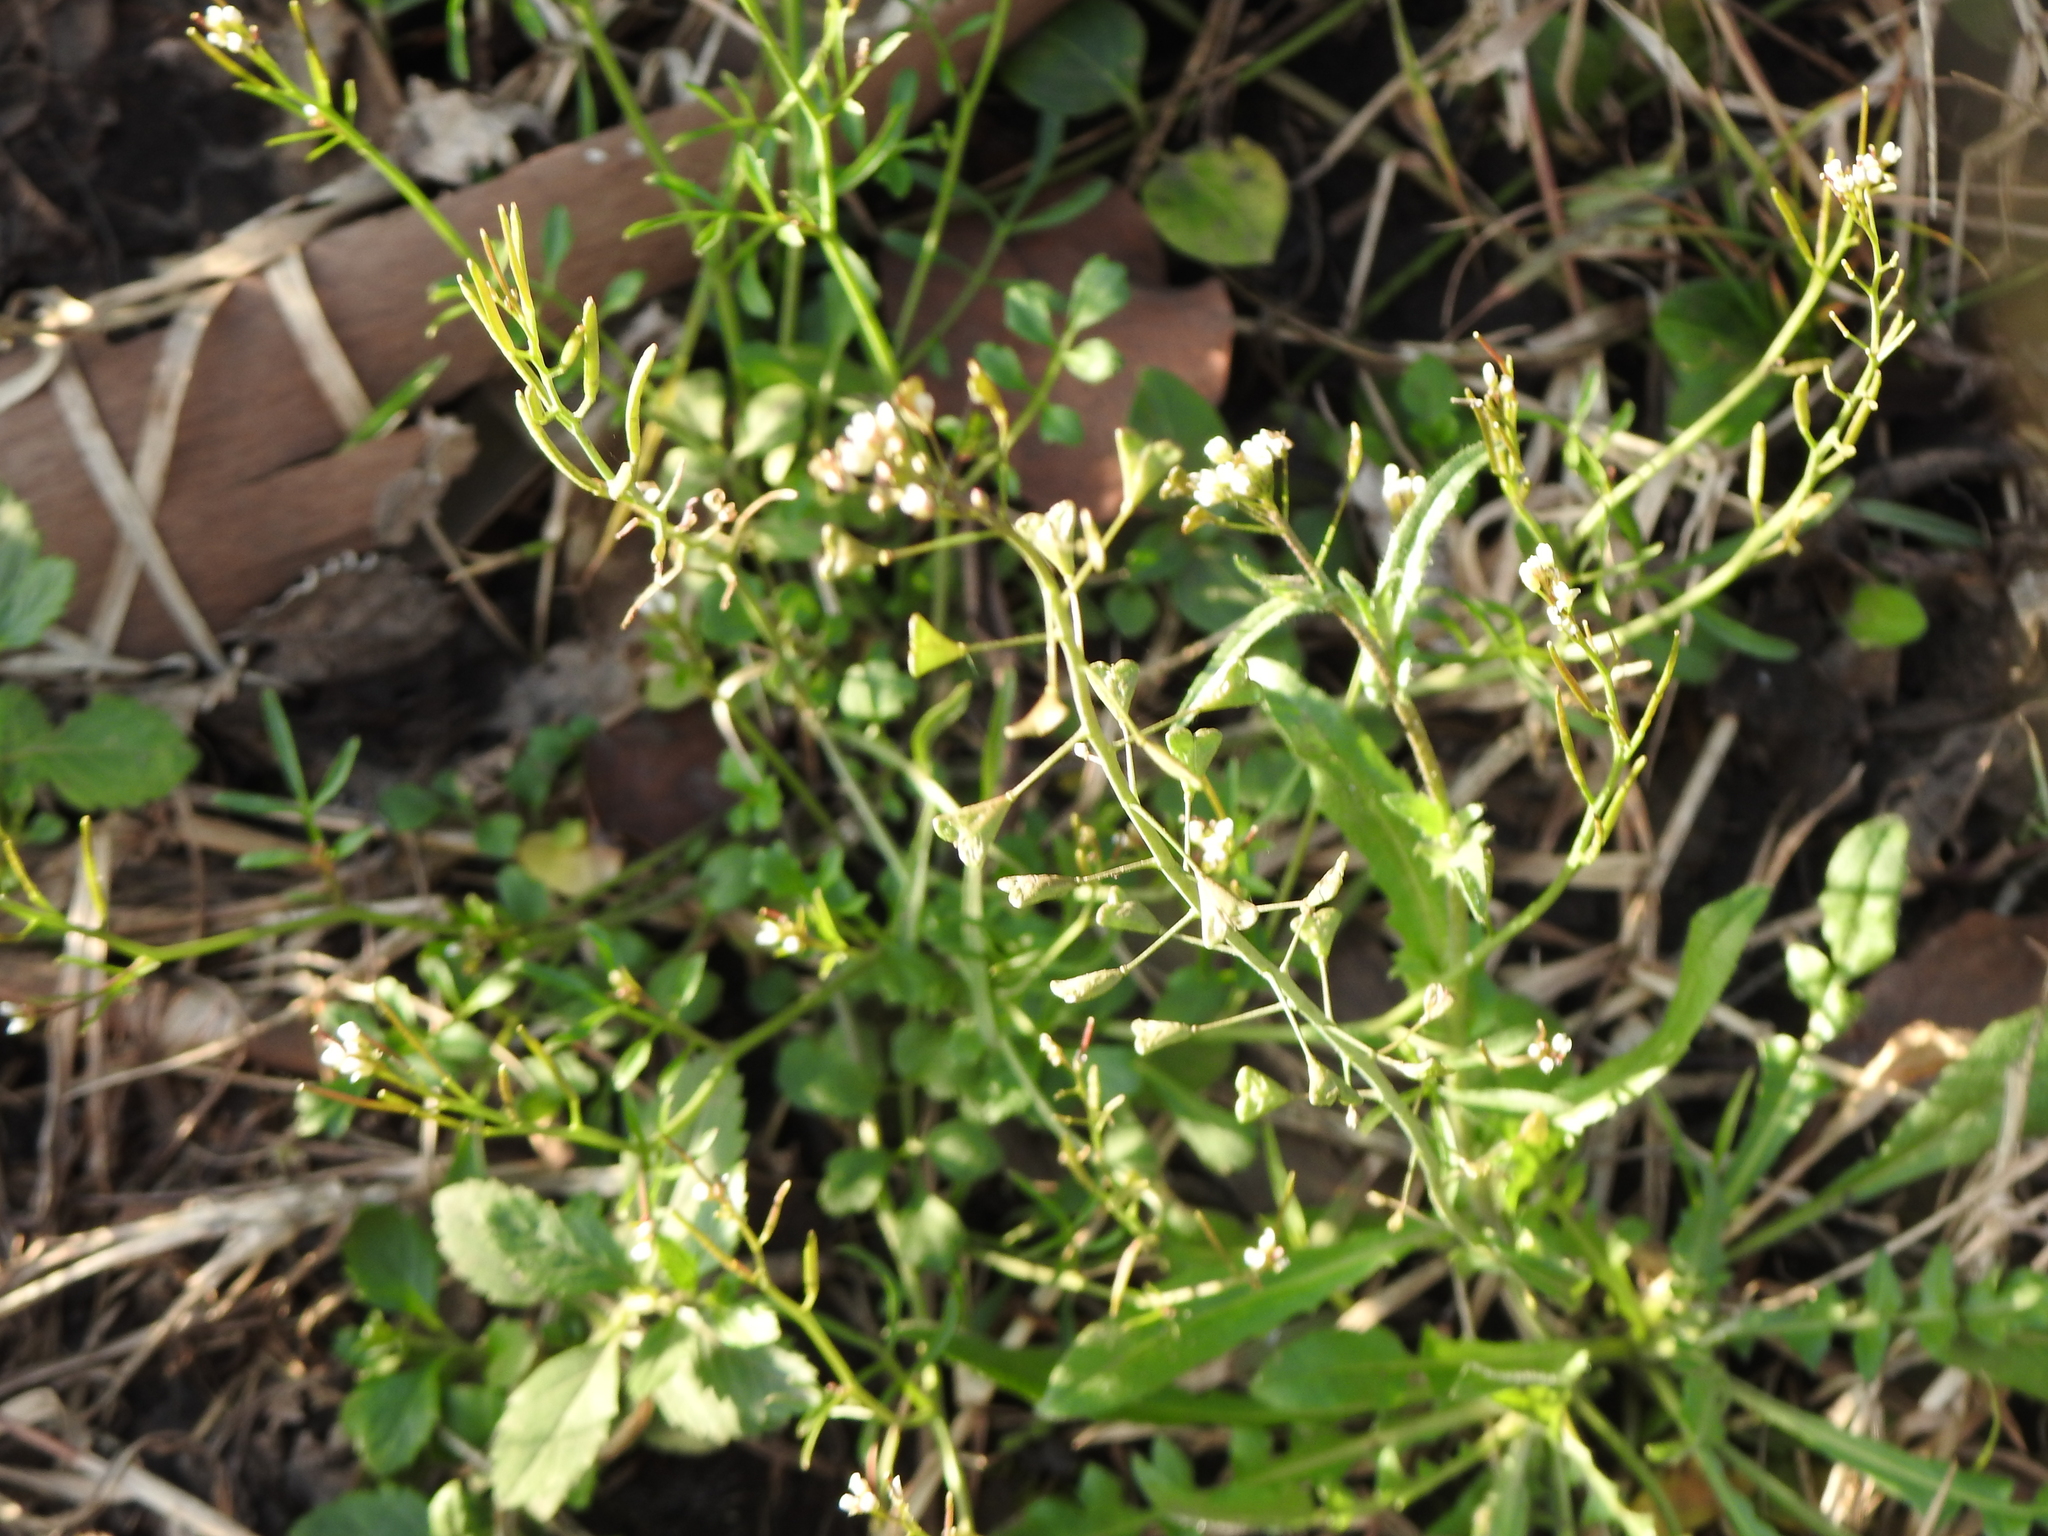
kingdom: Plantae
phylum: Tracheophyta
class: Magnoliopsida
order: Brassicales
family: Brassicaceae
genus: Capsella
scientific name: Capsella bursa-pastoris
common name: Shepherd's purse
